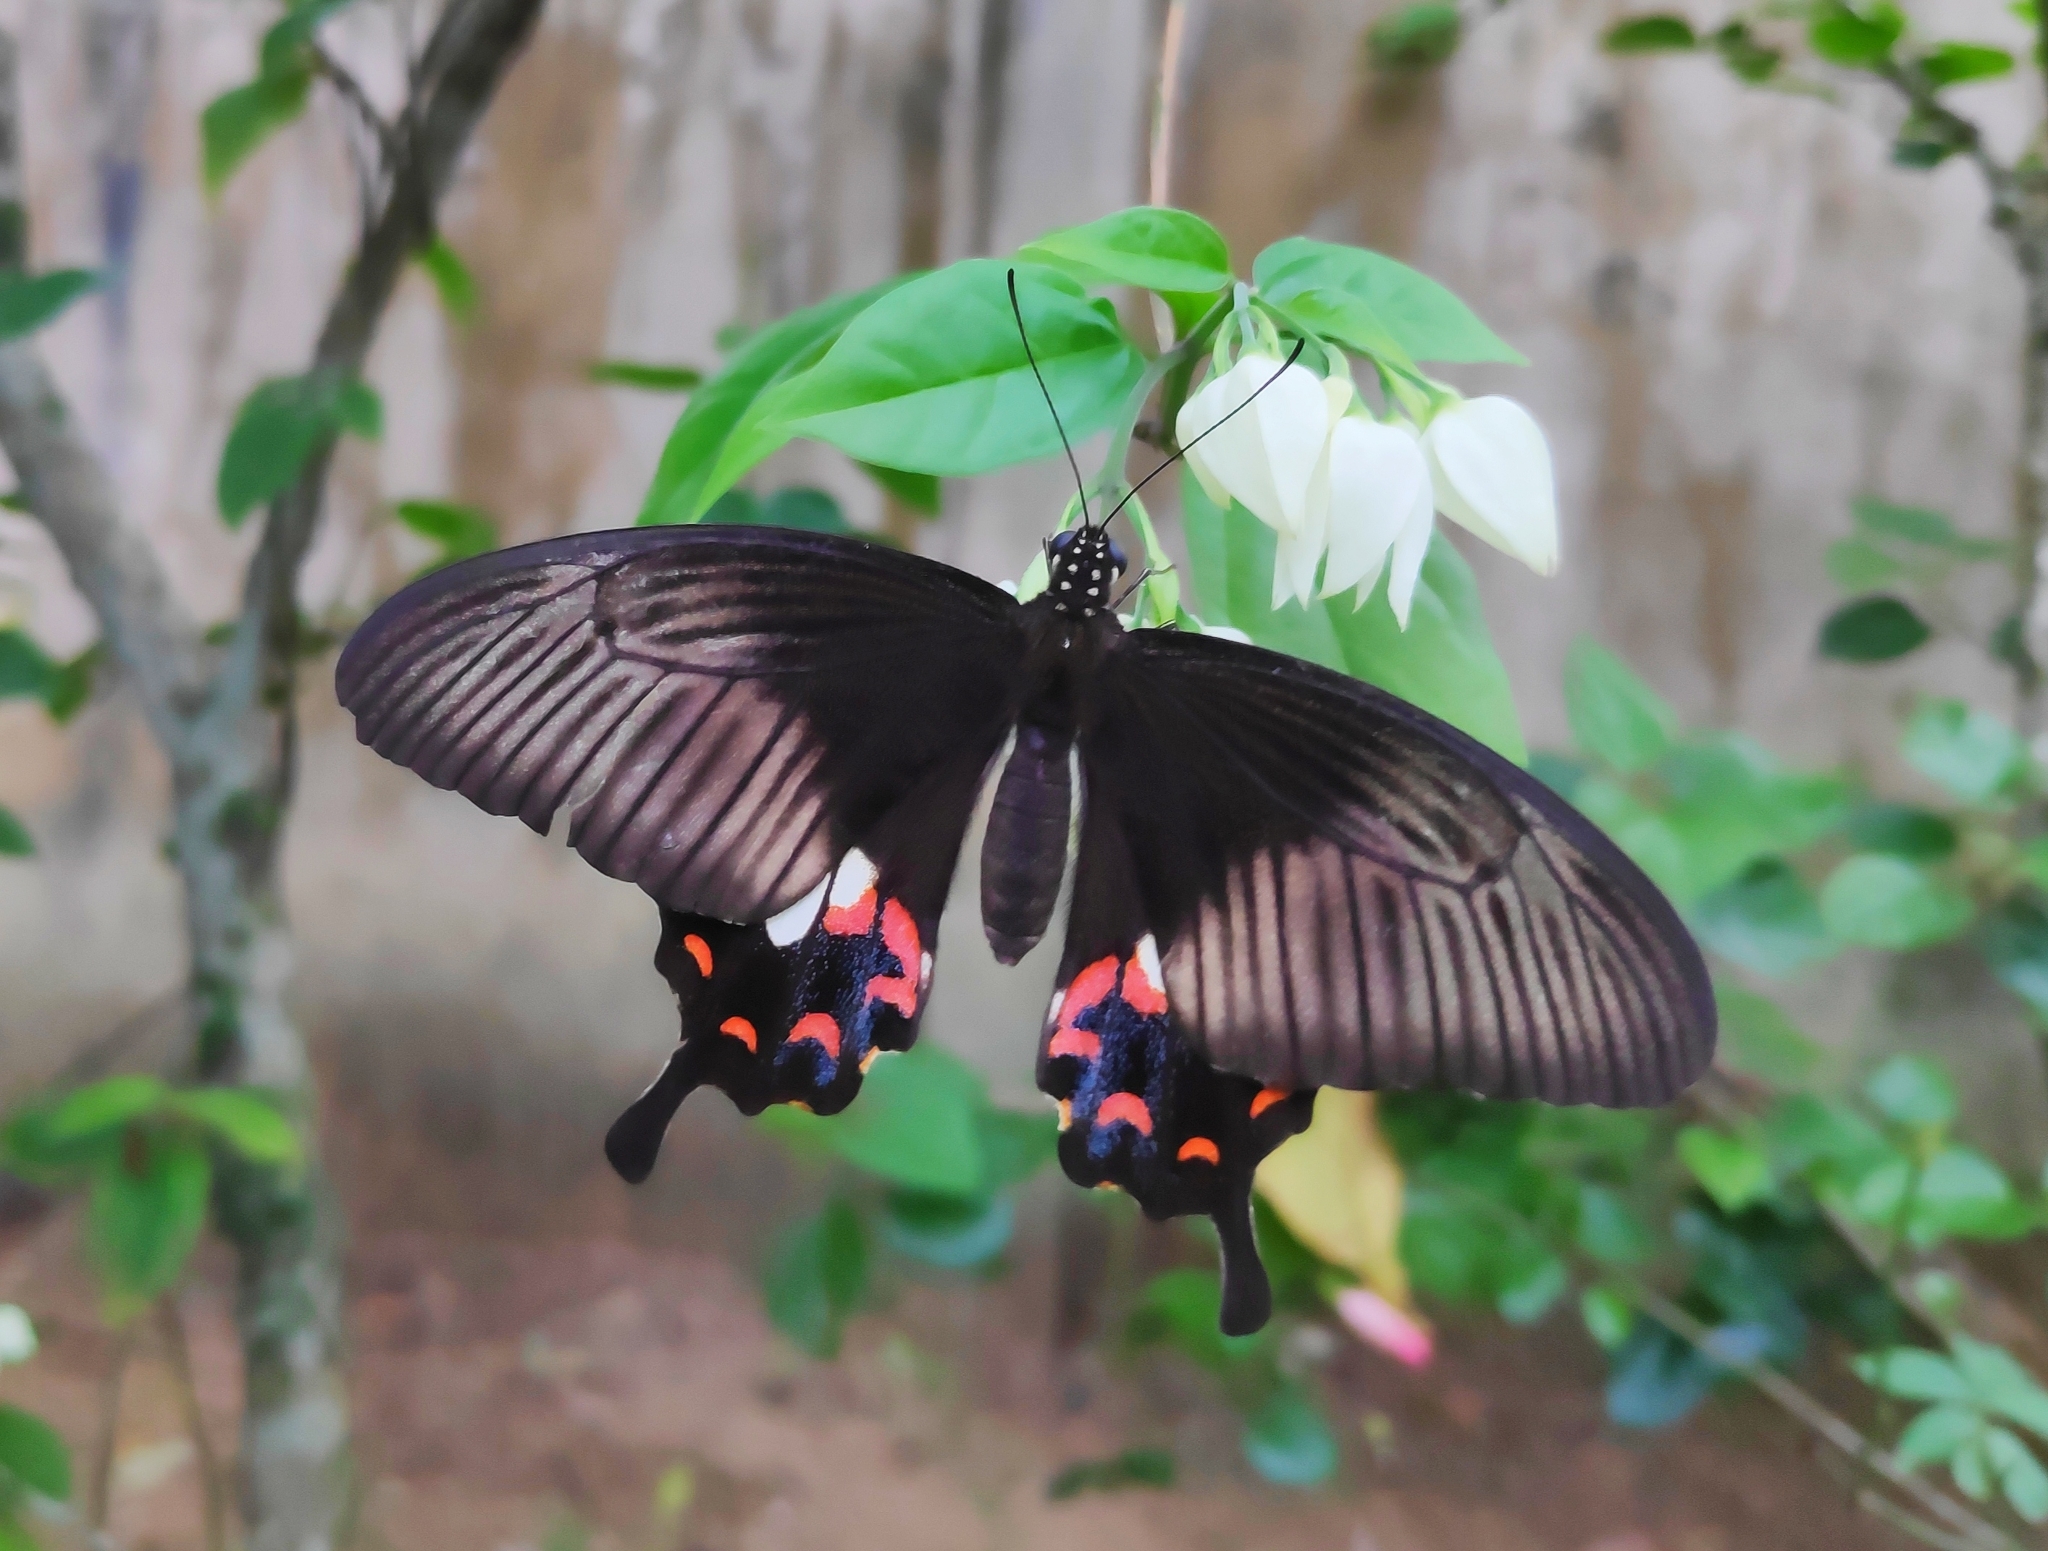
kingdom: Animalia
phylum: Arthropoda
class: Insecta
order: Lepidoptera
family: Papilionidae
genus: Papilio
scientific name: Papilio polytes
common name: Common mormon
